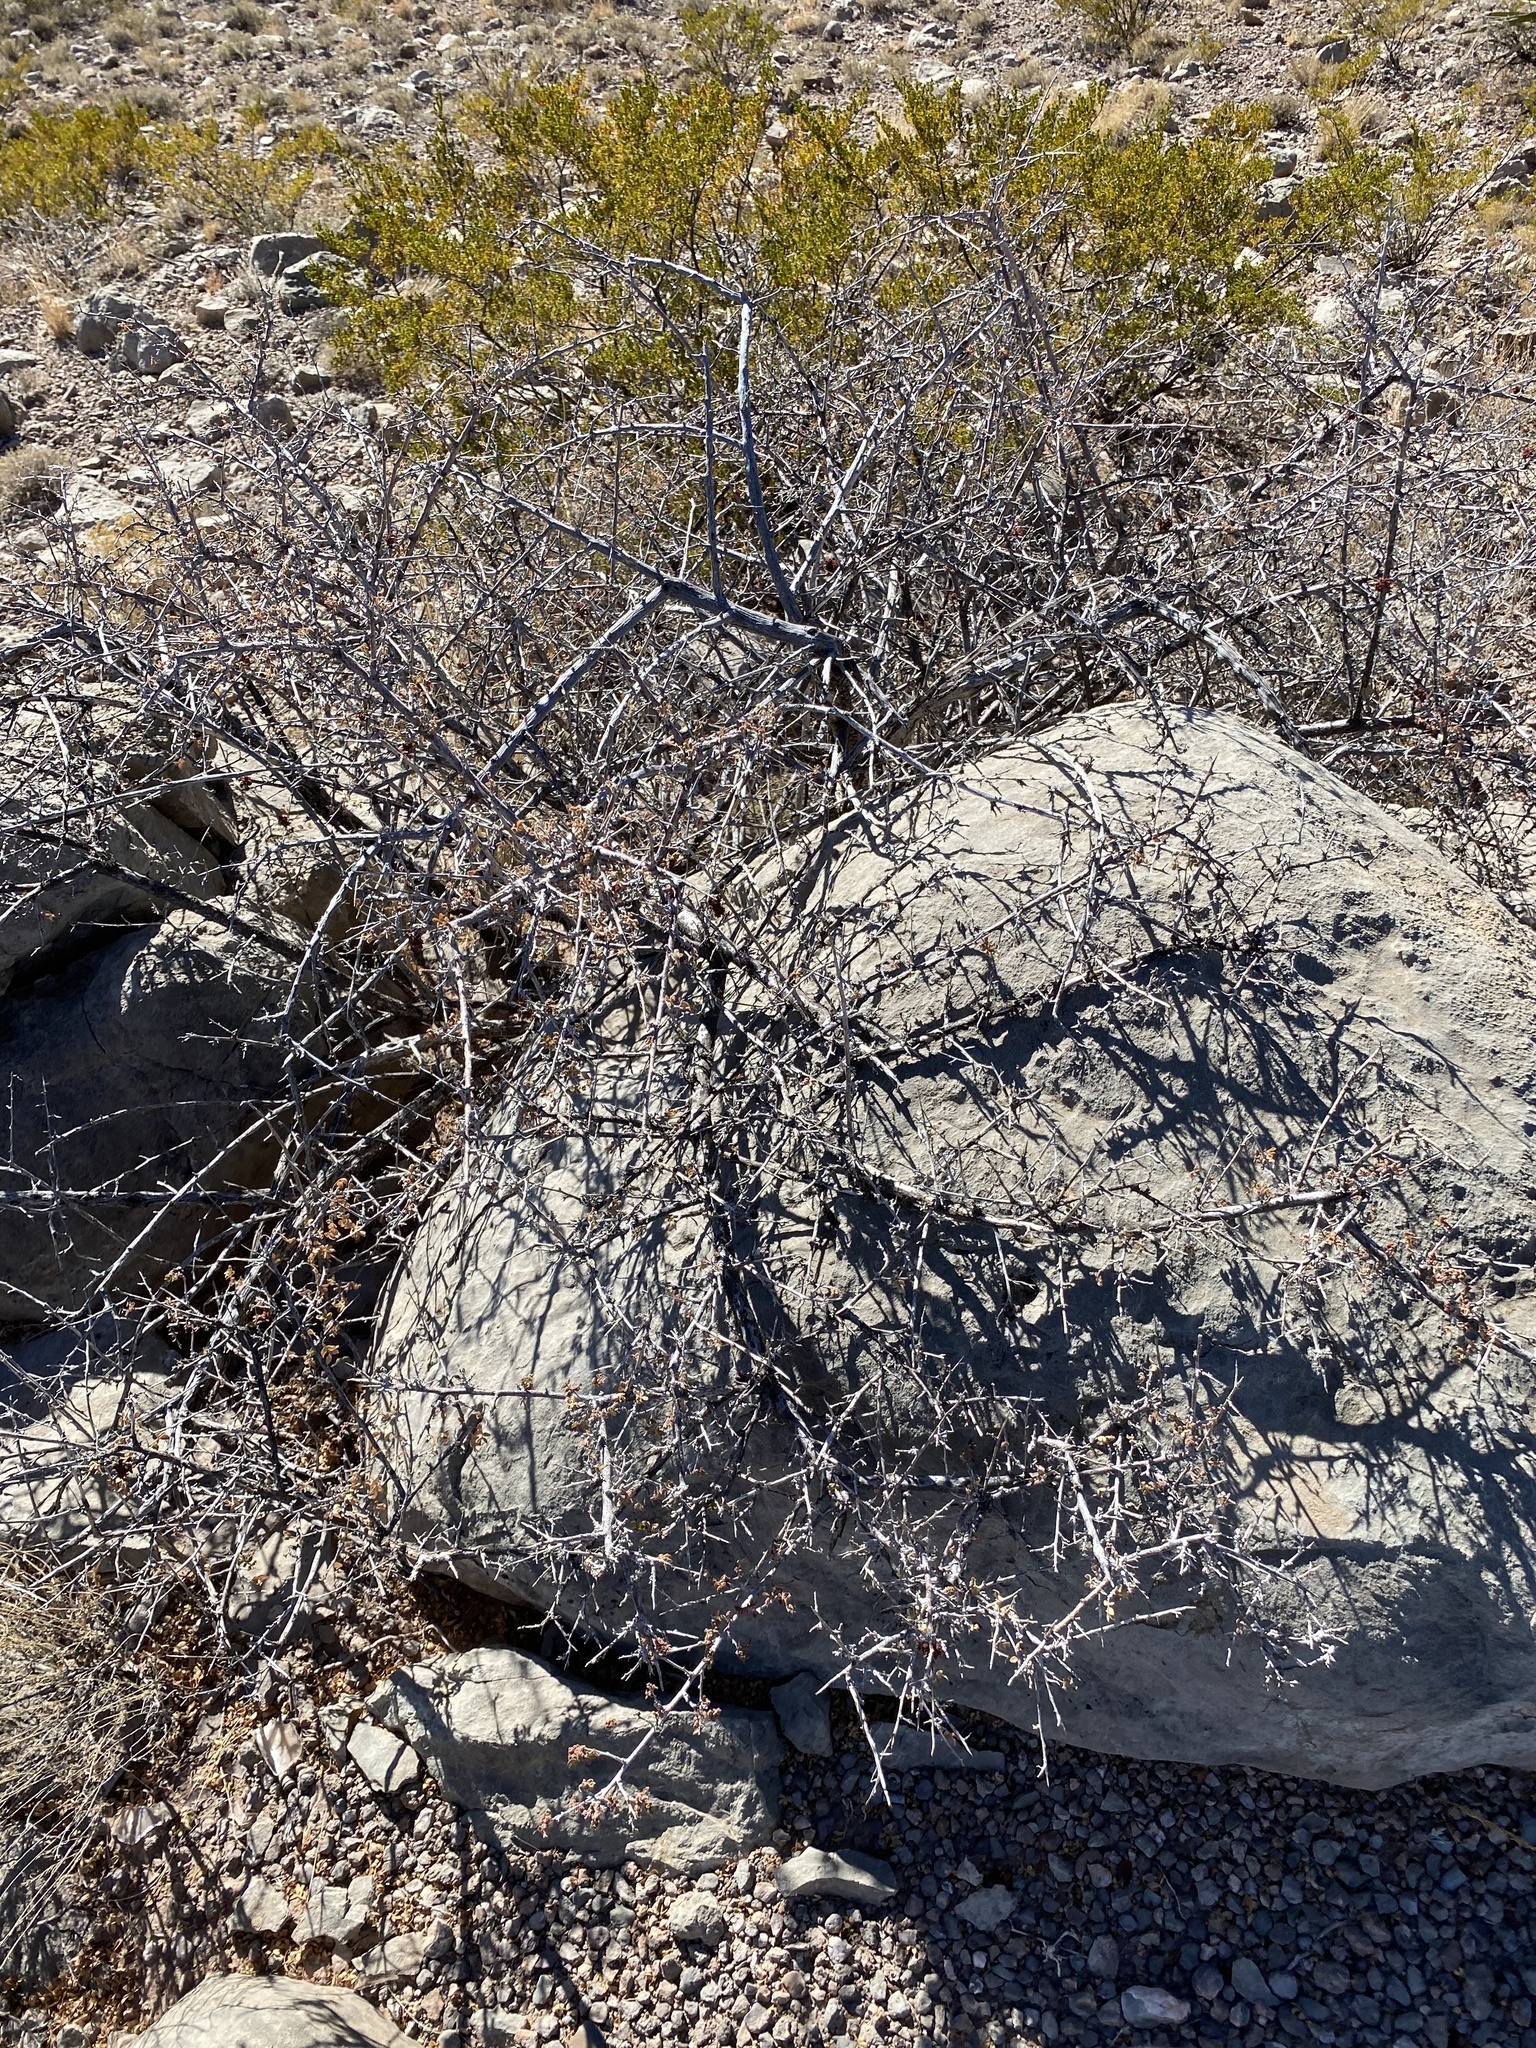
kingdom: Plantae
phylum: Tracheophyta
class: Magnoliopsida
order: Sapindales
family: Anacardiaceae
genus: Rhus
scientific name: Rhus microphylla
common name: Desert sumac
